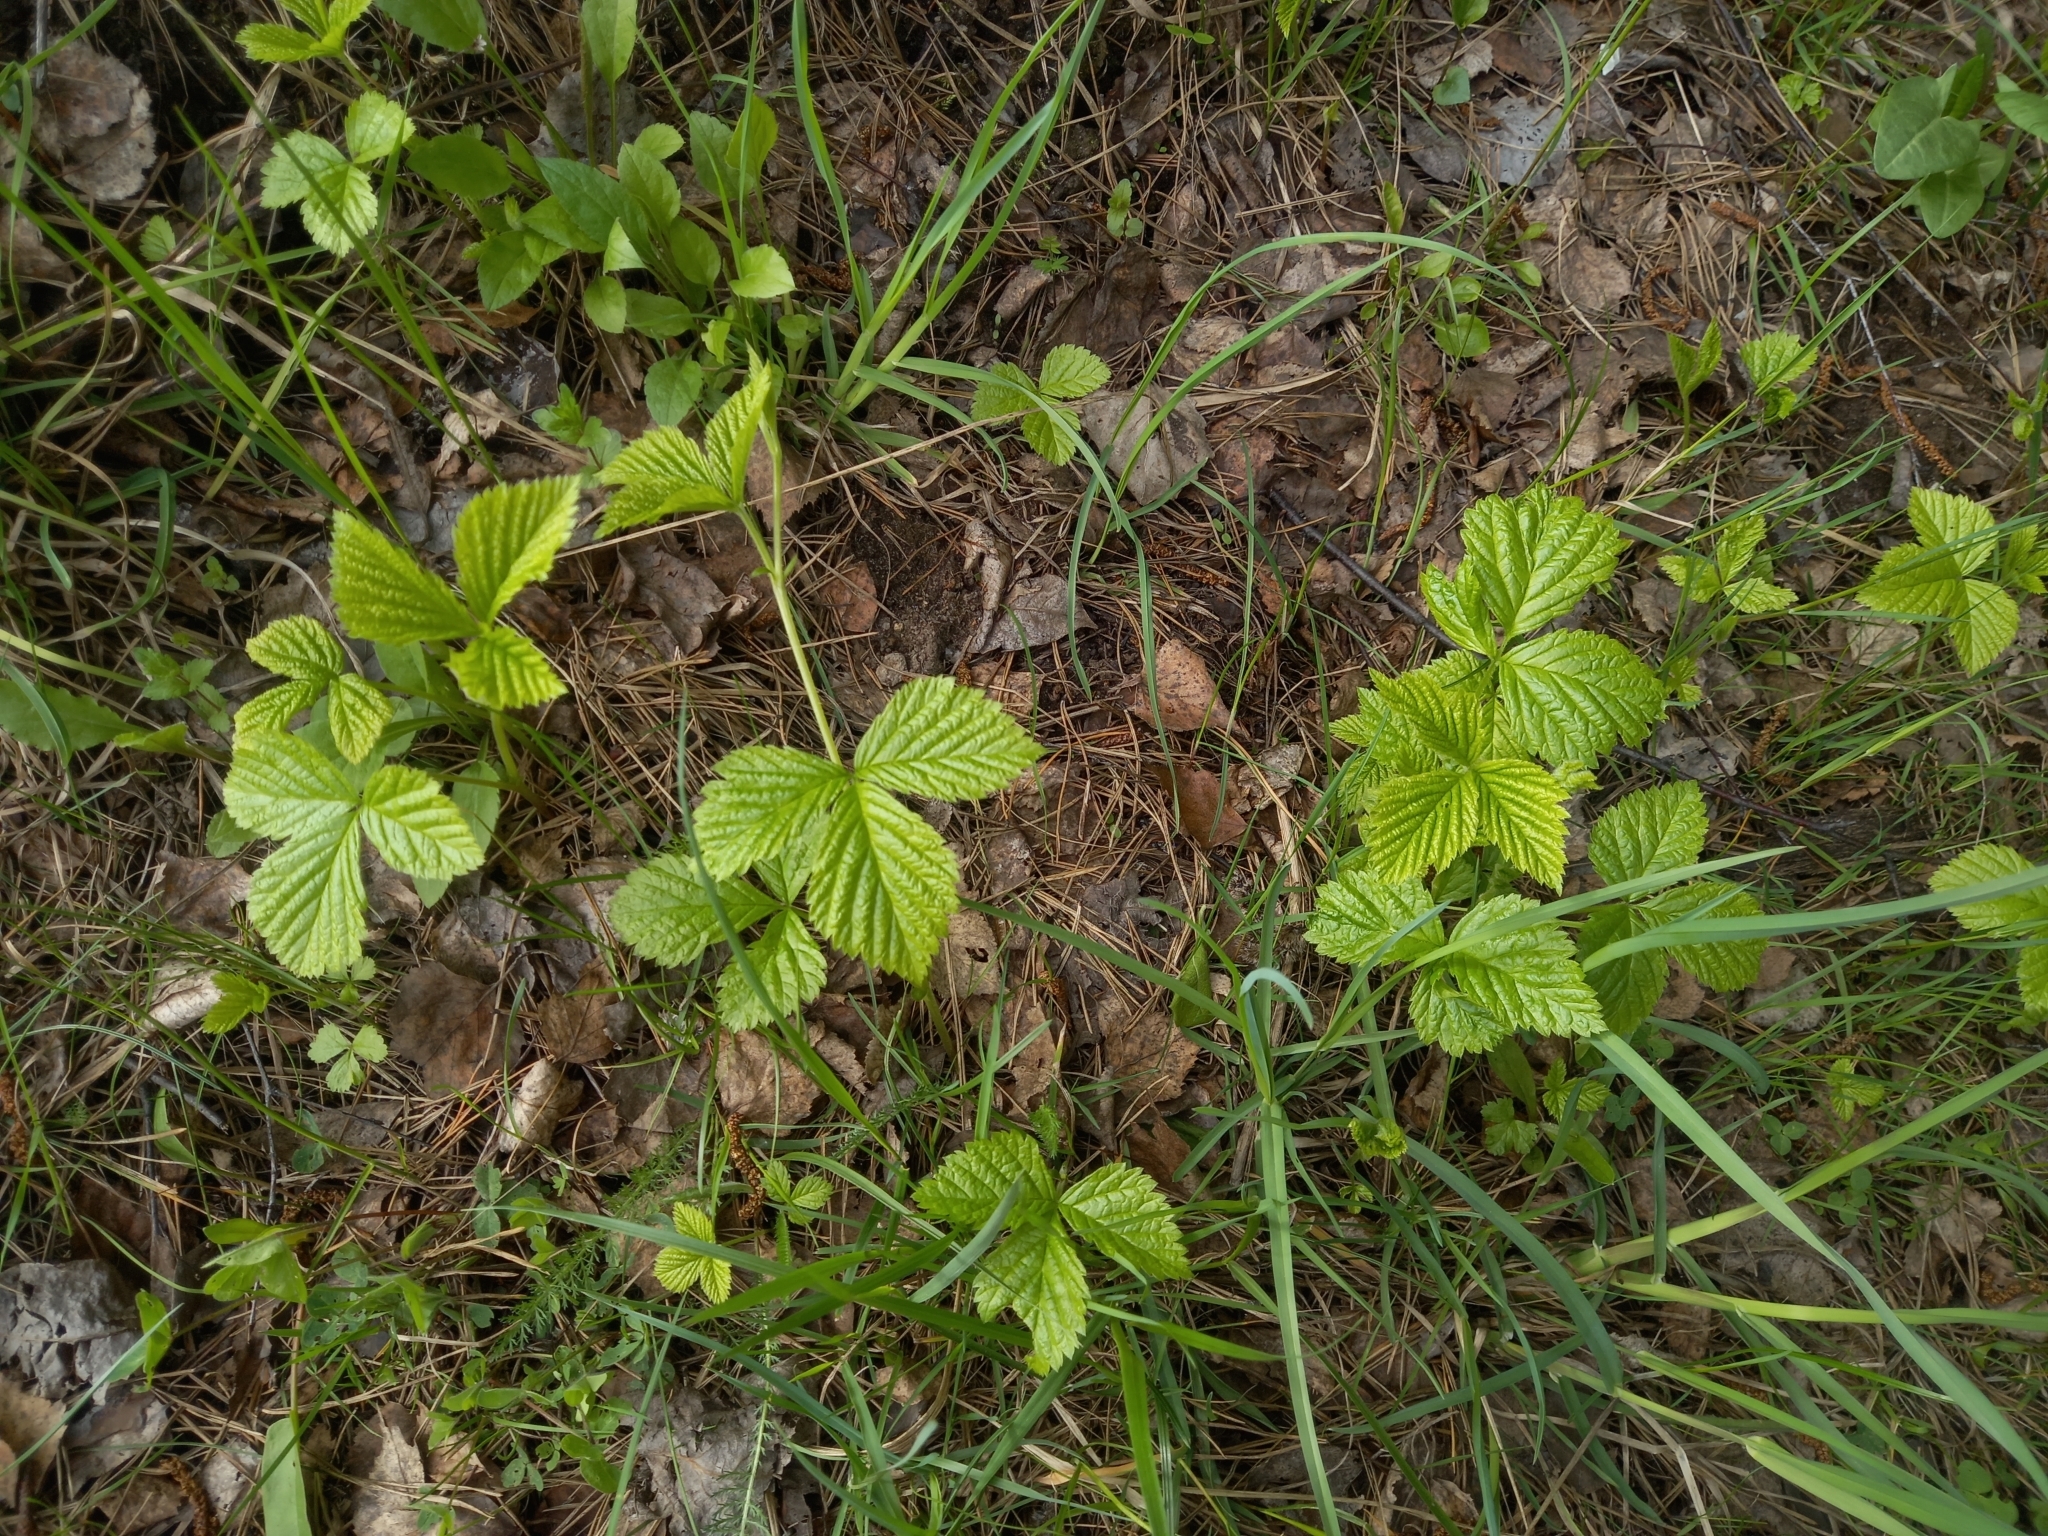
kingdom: Plantae
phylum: Tracheophyta
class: Magnoliopsida
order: Rosales
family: Rosaceae
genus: Rubus
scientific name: Rubus saxatilis
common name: Stone bramble
